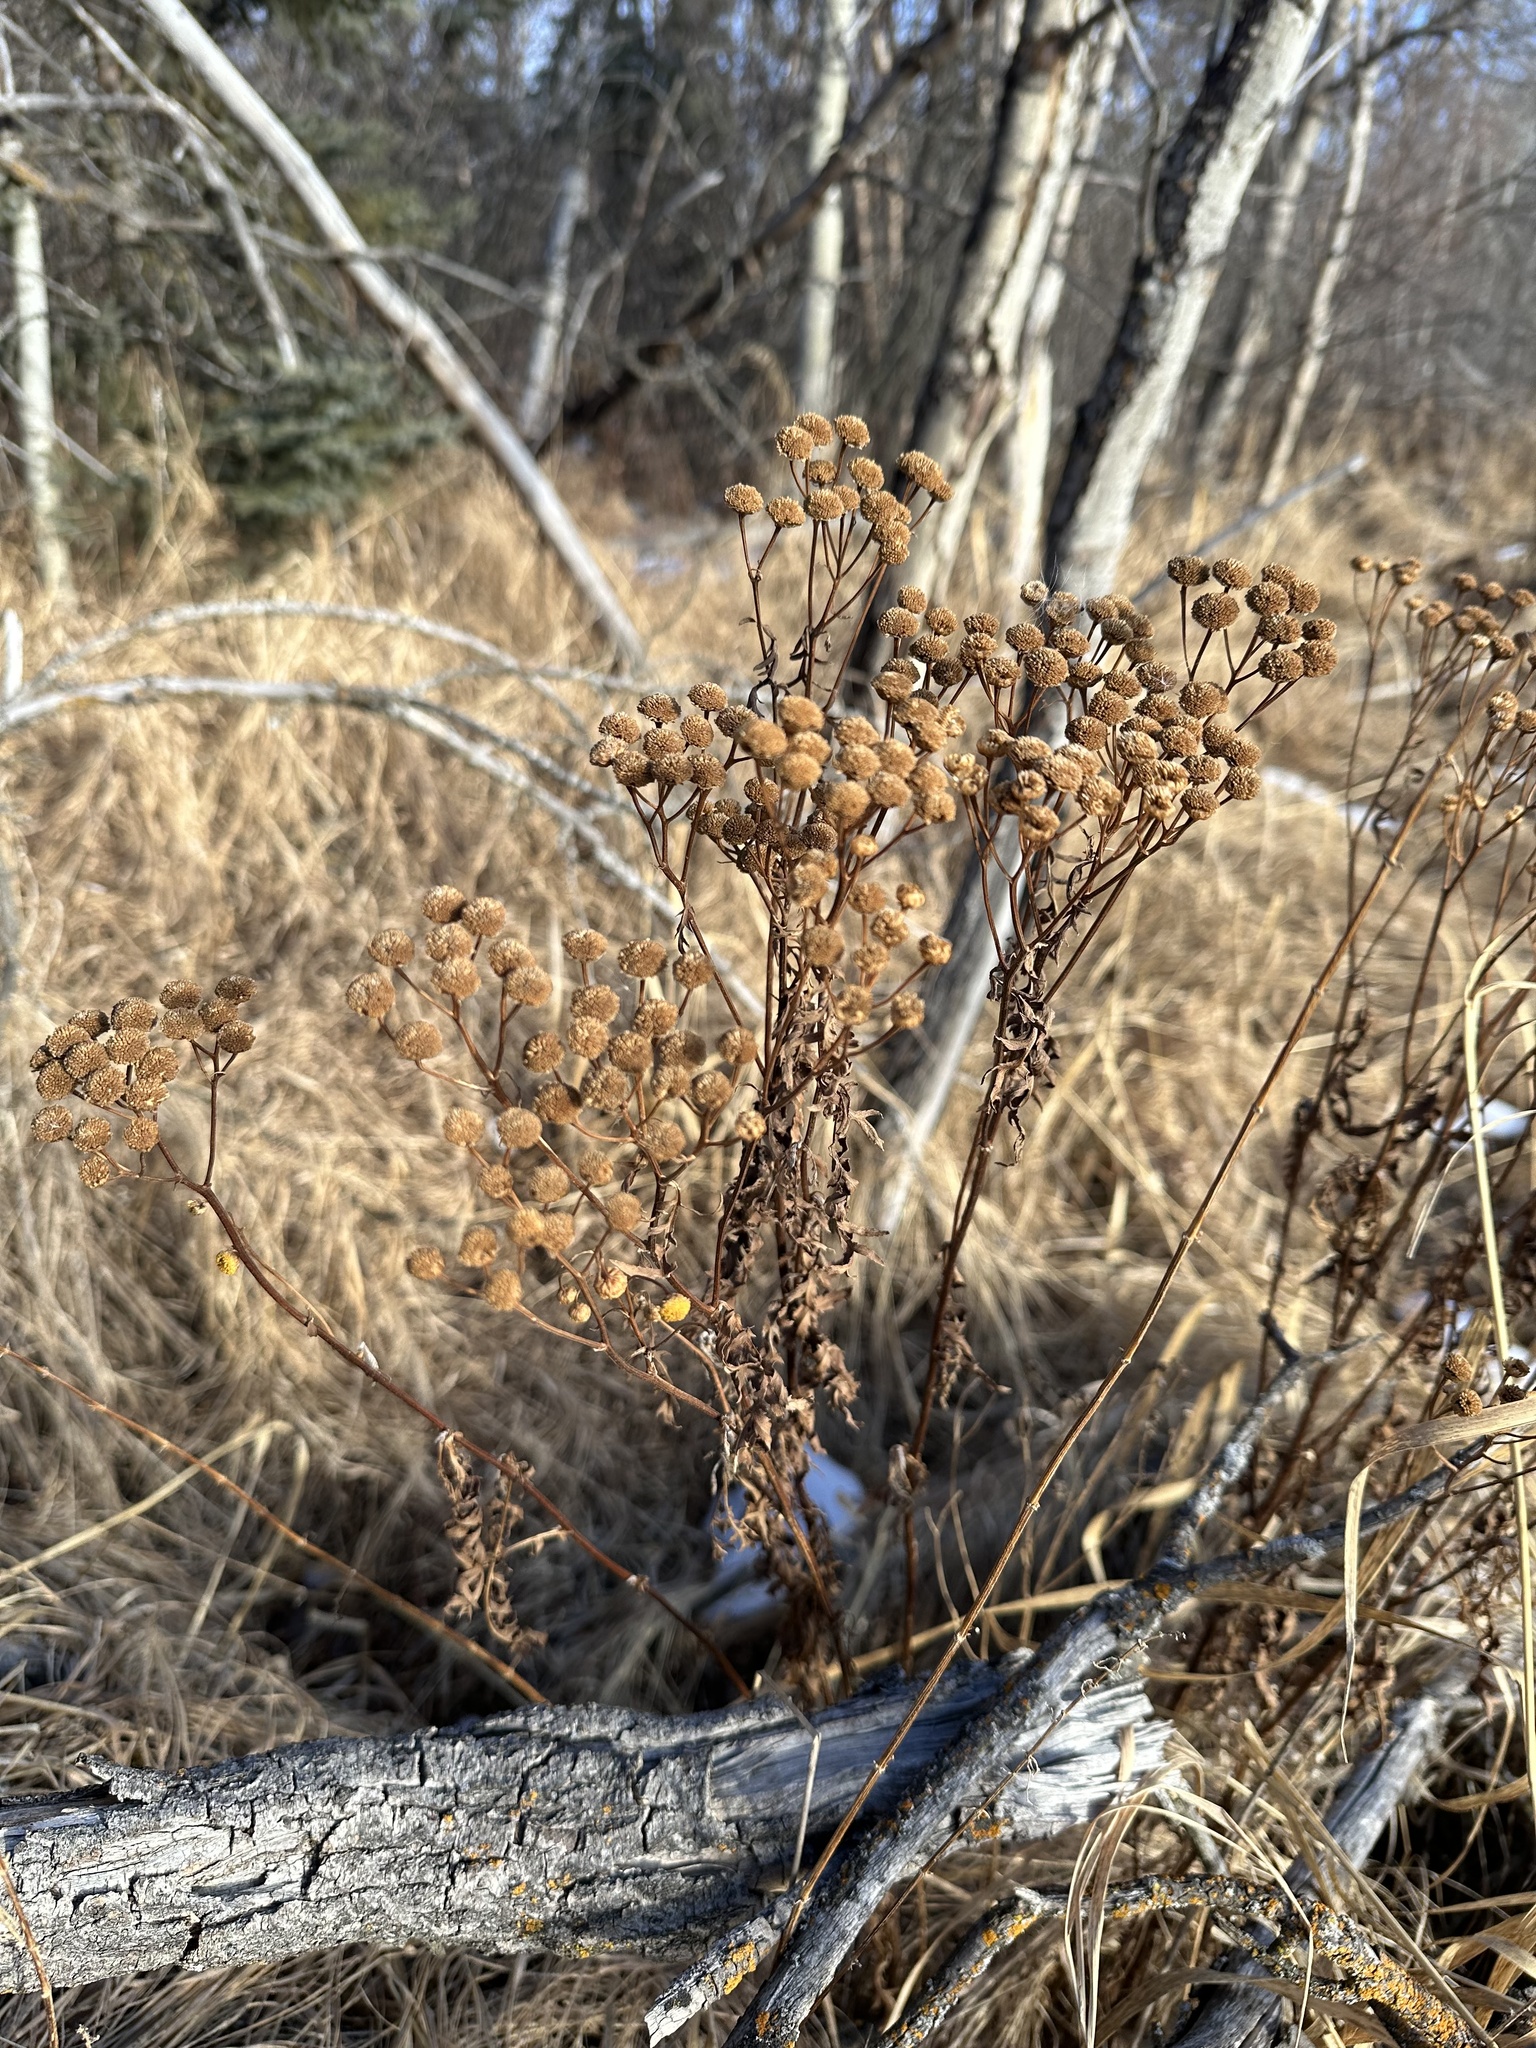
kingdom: Plantae
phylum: Tracheophyta
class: Magnoliopsida
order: Asterales
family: Asteraceae
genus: Tanacetum
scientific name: Tanacetum vulgare
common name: Common tansy
